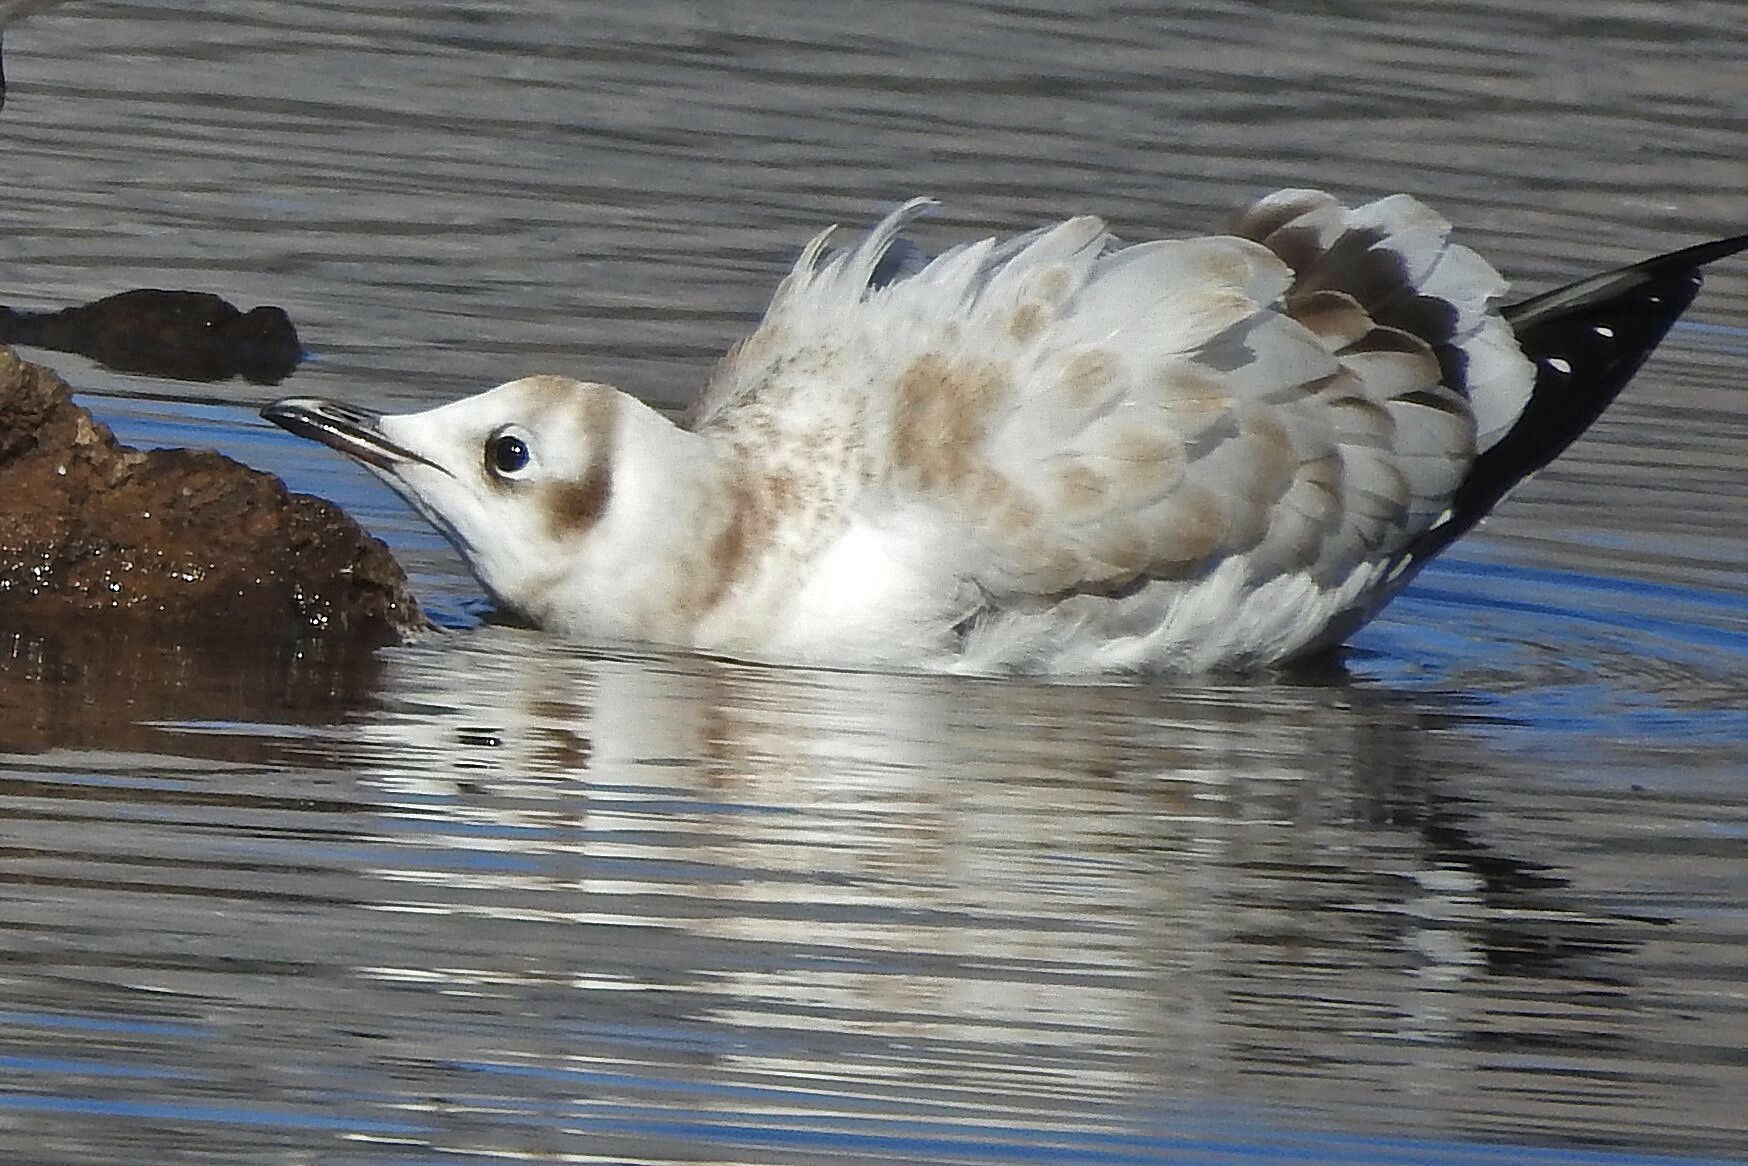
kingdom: Animalia
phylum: Chordata
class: Aves
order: Charadriiformes
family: Laridae
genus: Chroicocephalus
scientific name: Chroicocephalus serranus
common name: Andean gull
